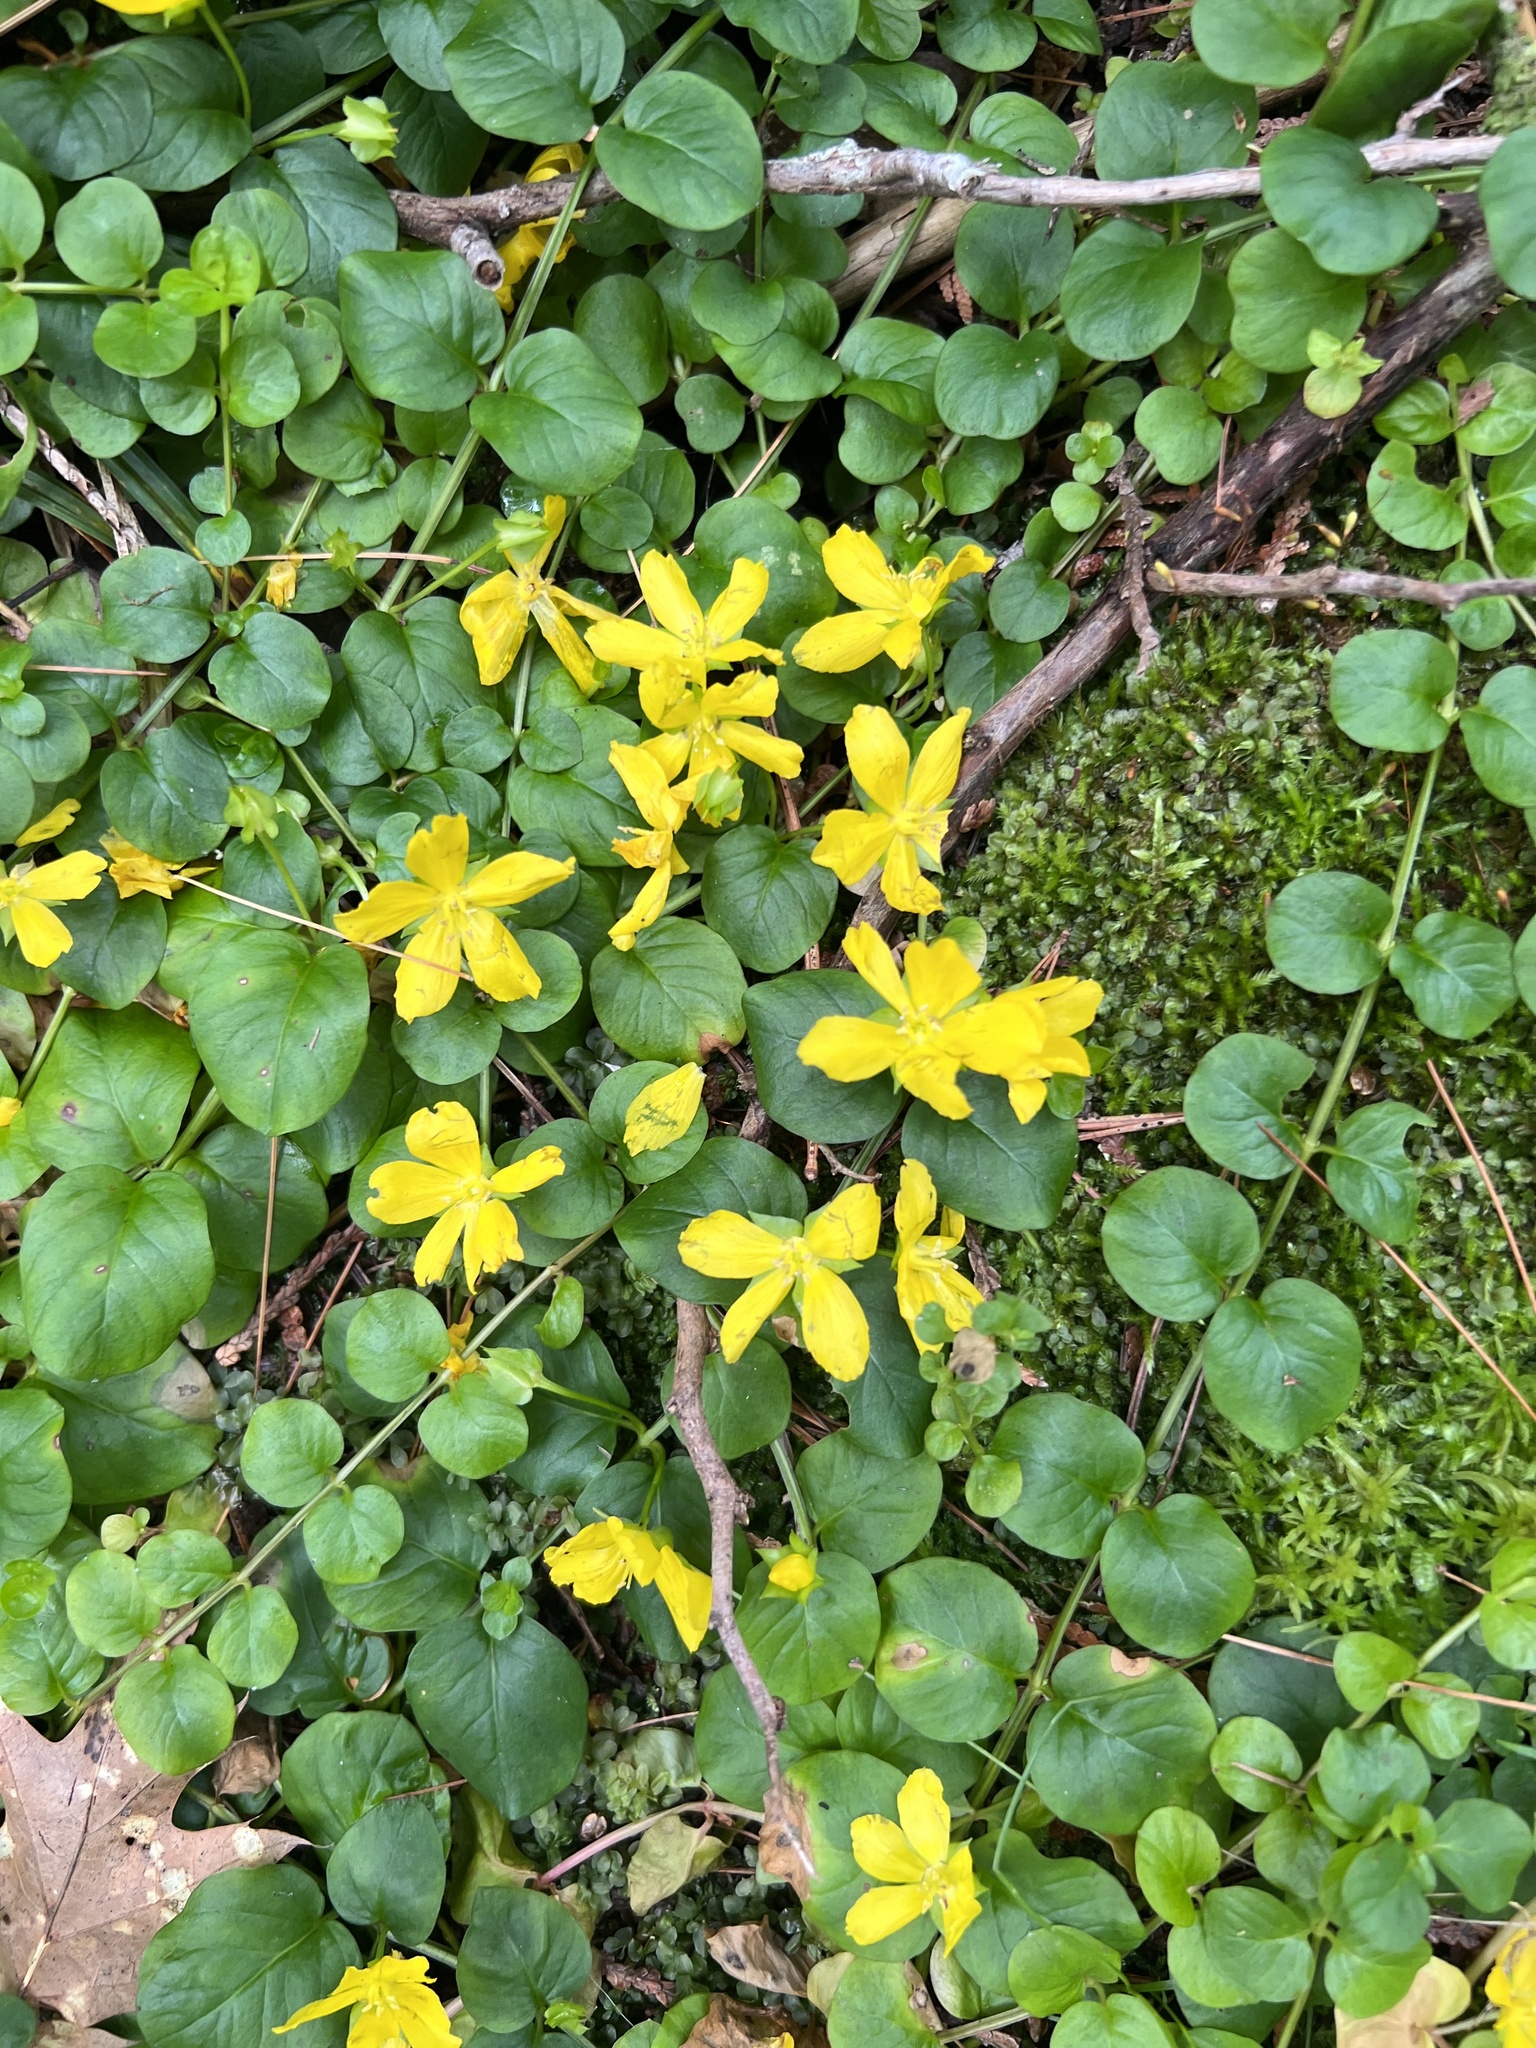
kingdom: Plantae
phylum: Tracheophyta
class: Magnoliopsida
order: Ericales
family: Primulaceae
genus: Lysimachia
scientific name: Lysimachia nummularia
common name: Moneywort
